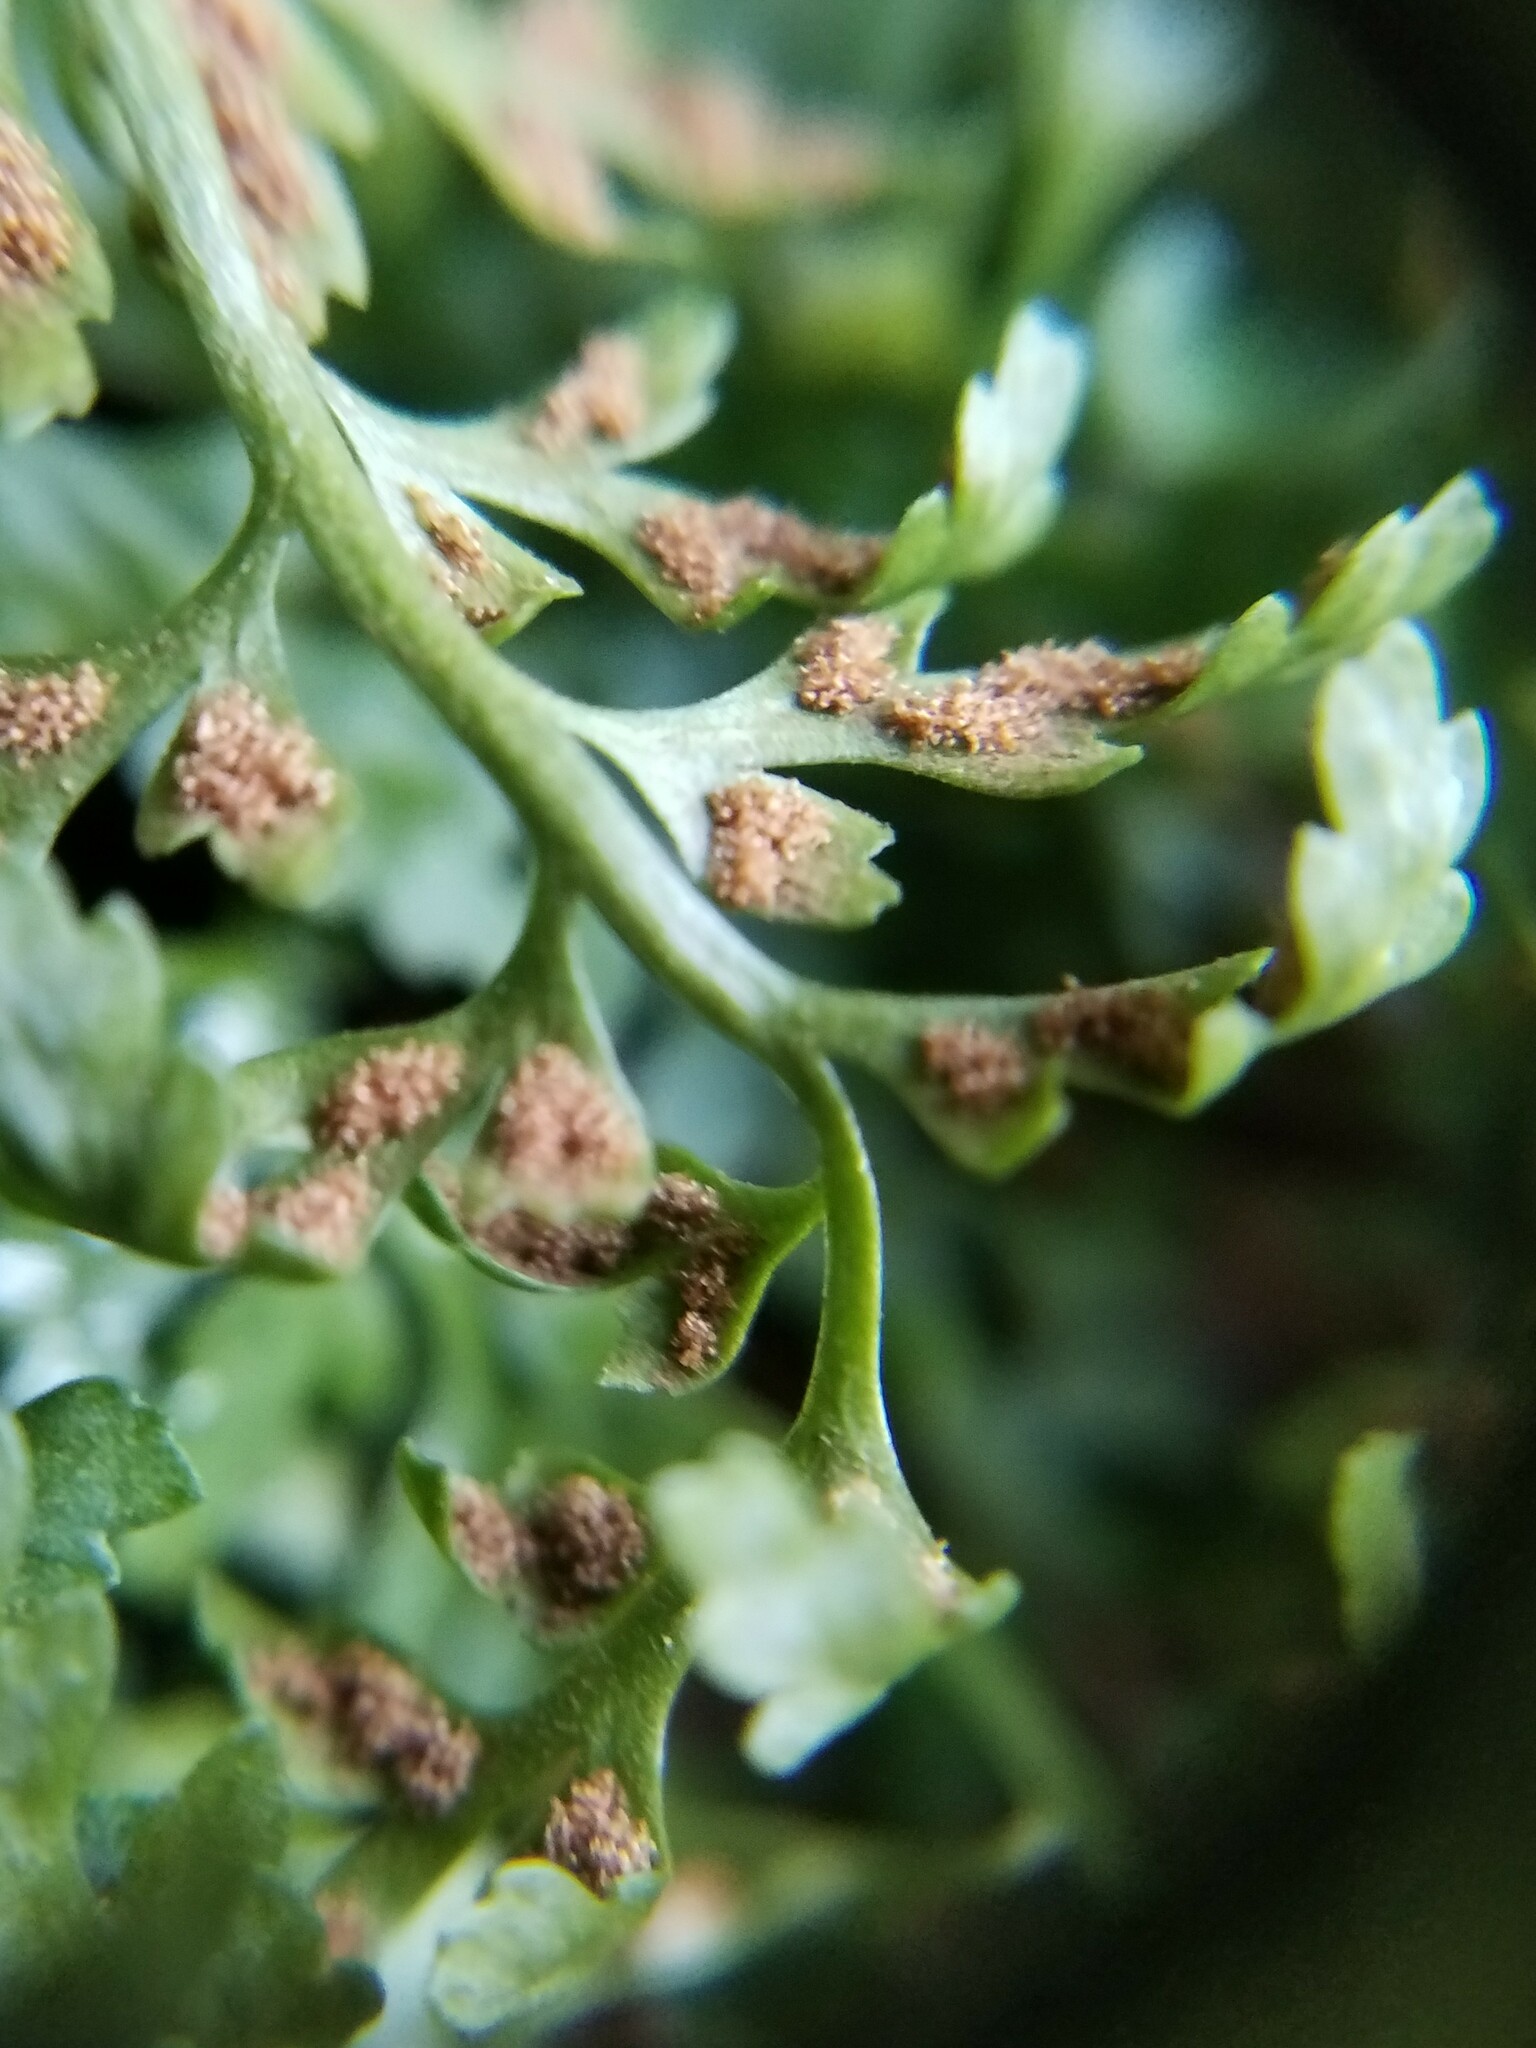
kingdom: Plantae
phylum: Tracheophyta
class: Polypodiopsida
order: Polypodiales
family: Aspleniaceae
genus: Asplenium
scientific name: Asplenium montanum
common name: Mountain spleenwort
